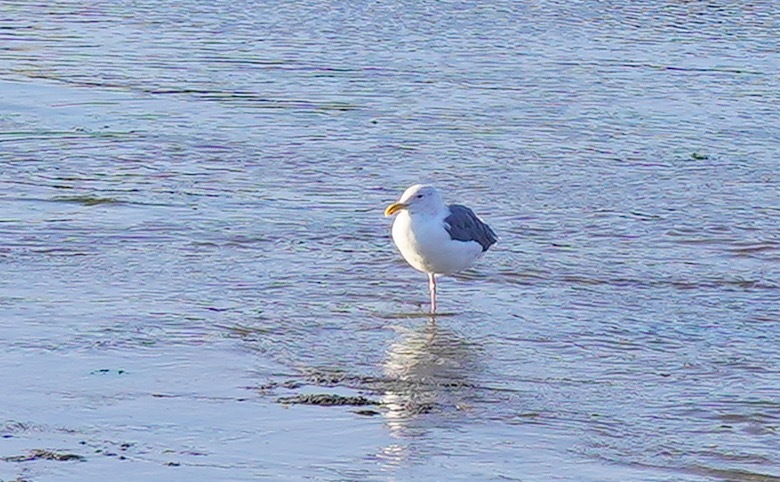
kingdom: Animalia
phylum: Chordata
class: Aves
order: Charadriiformes
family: Laridae
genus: Larus
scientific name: Larus occidentalis
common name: Western gull
